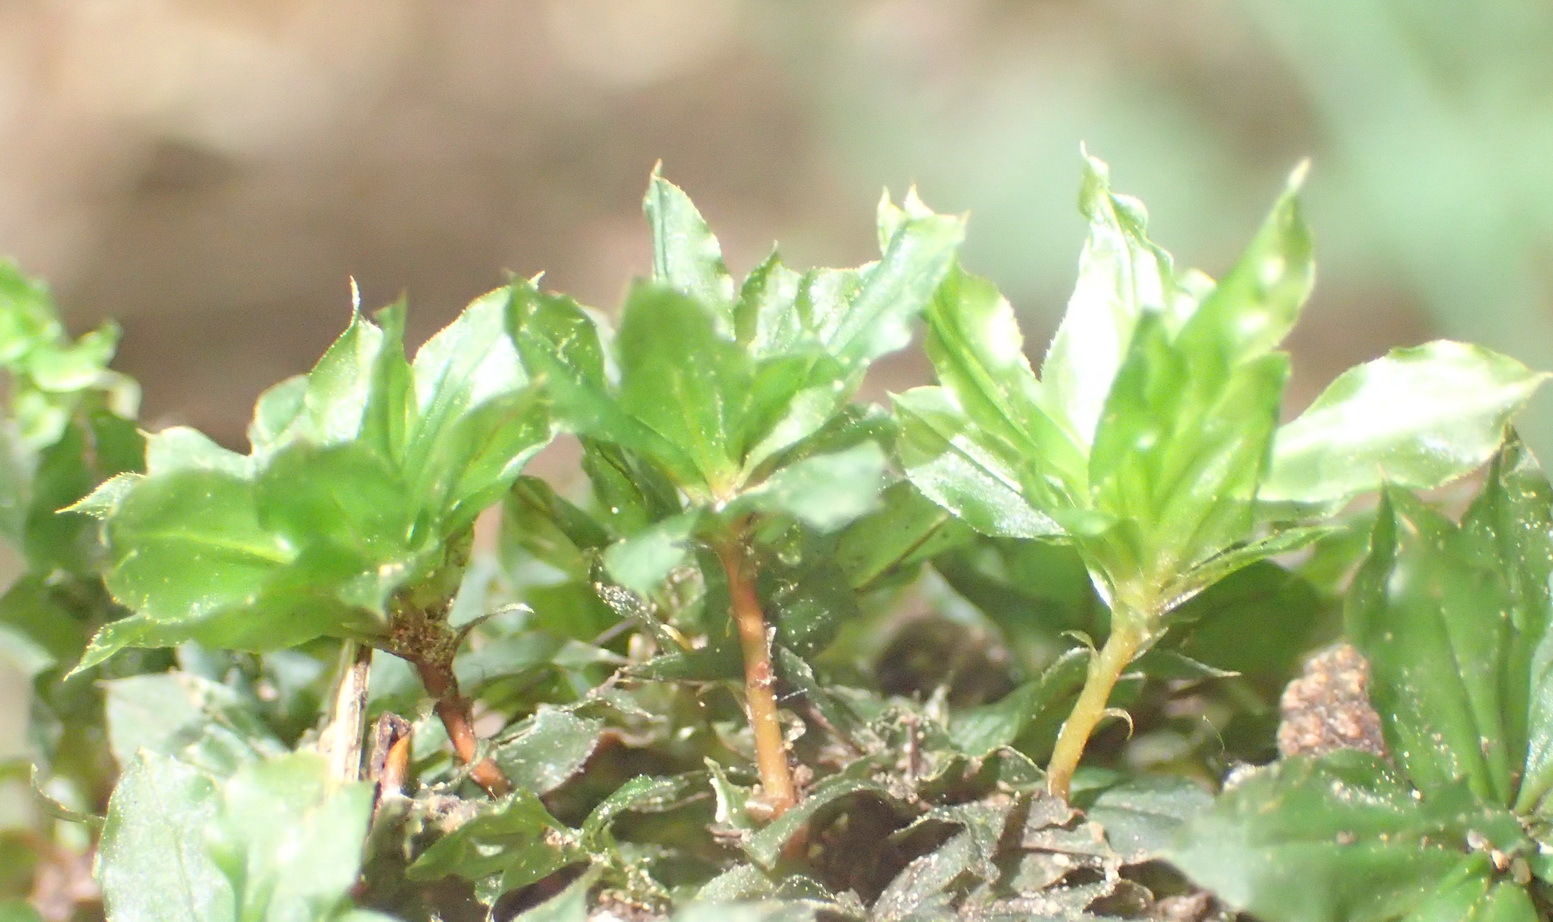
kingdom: Plantae
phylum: Bryophyta
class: Bryopsida
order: Bryales
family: Bryaceae
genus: Rhodobryum
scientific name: Rhodobryum umbraculum
